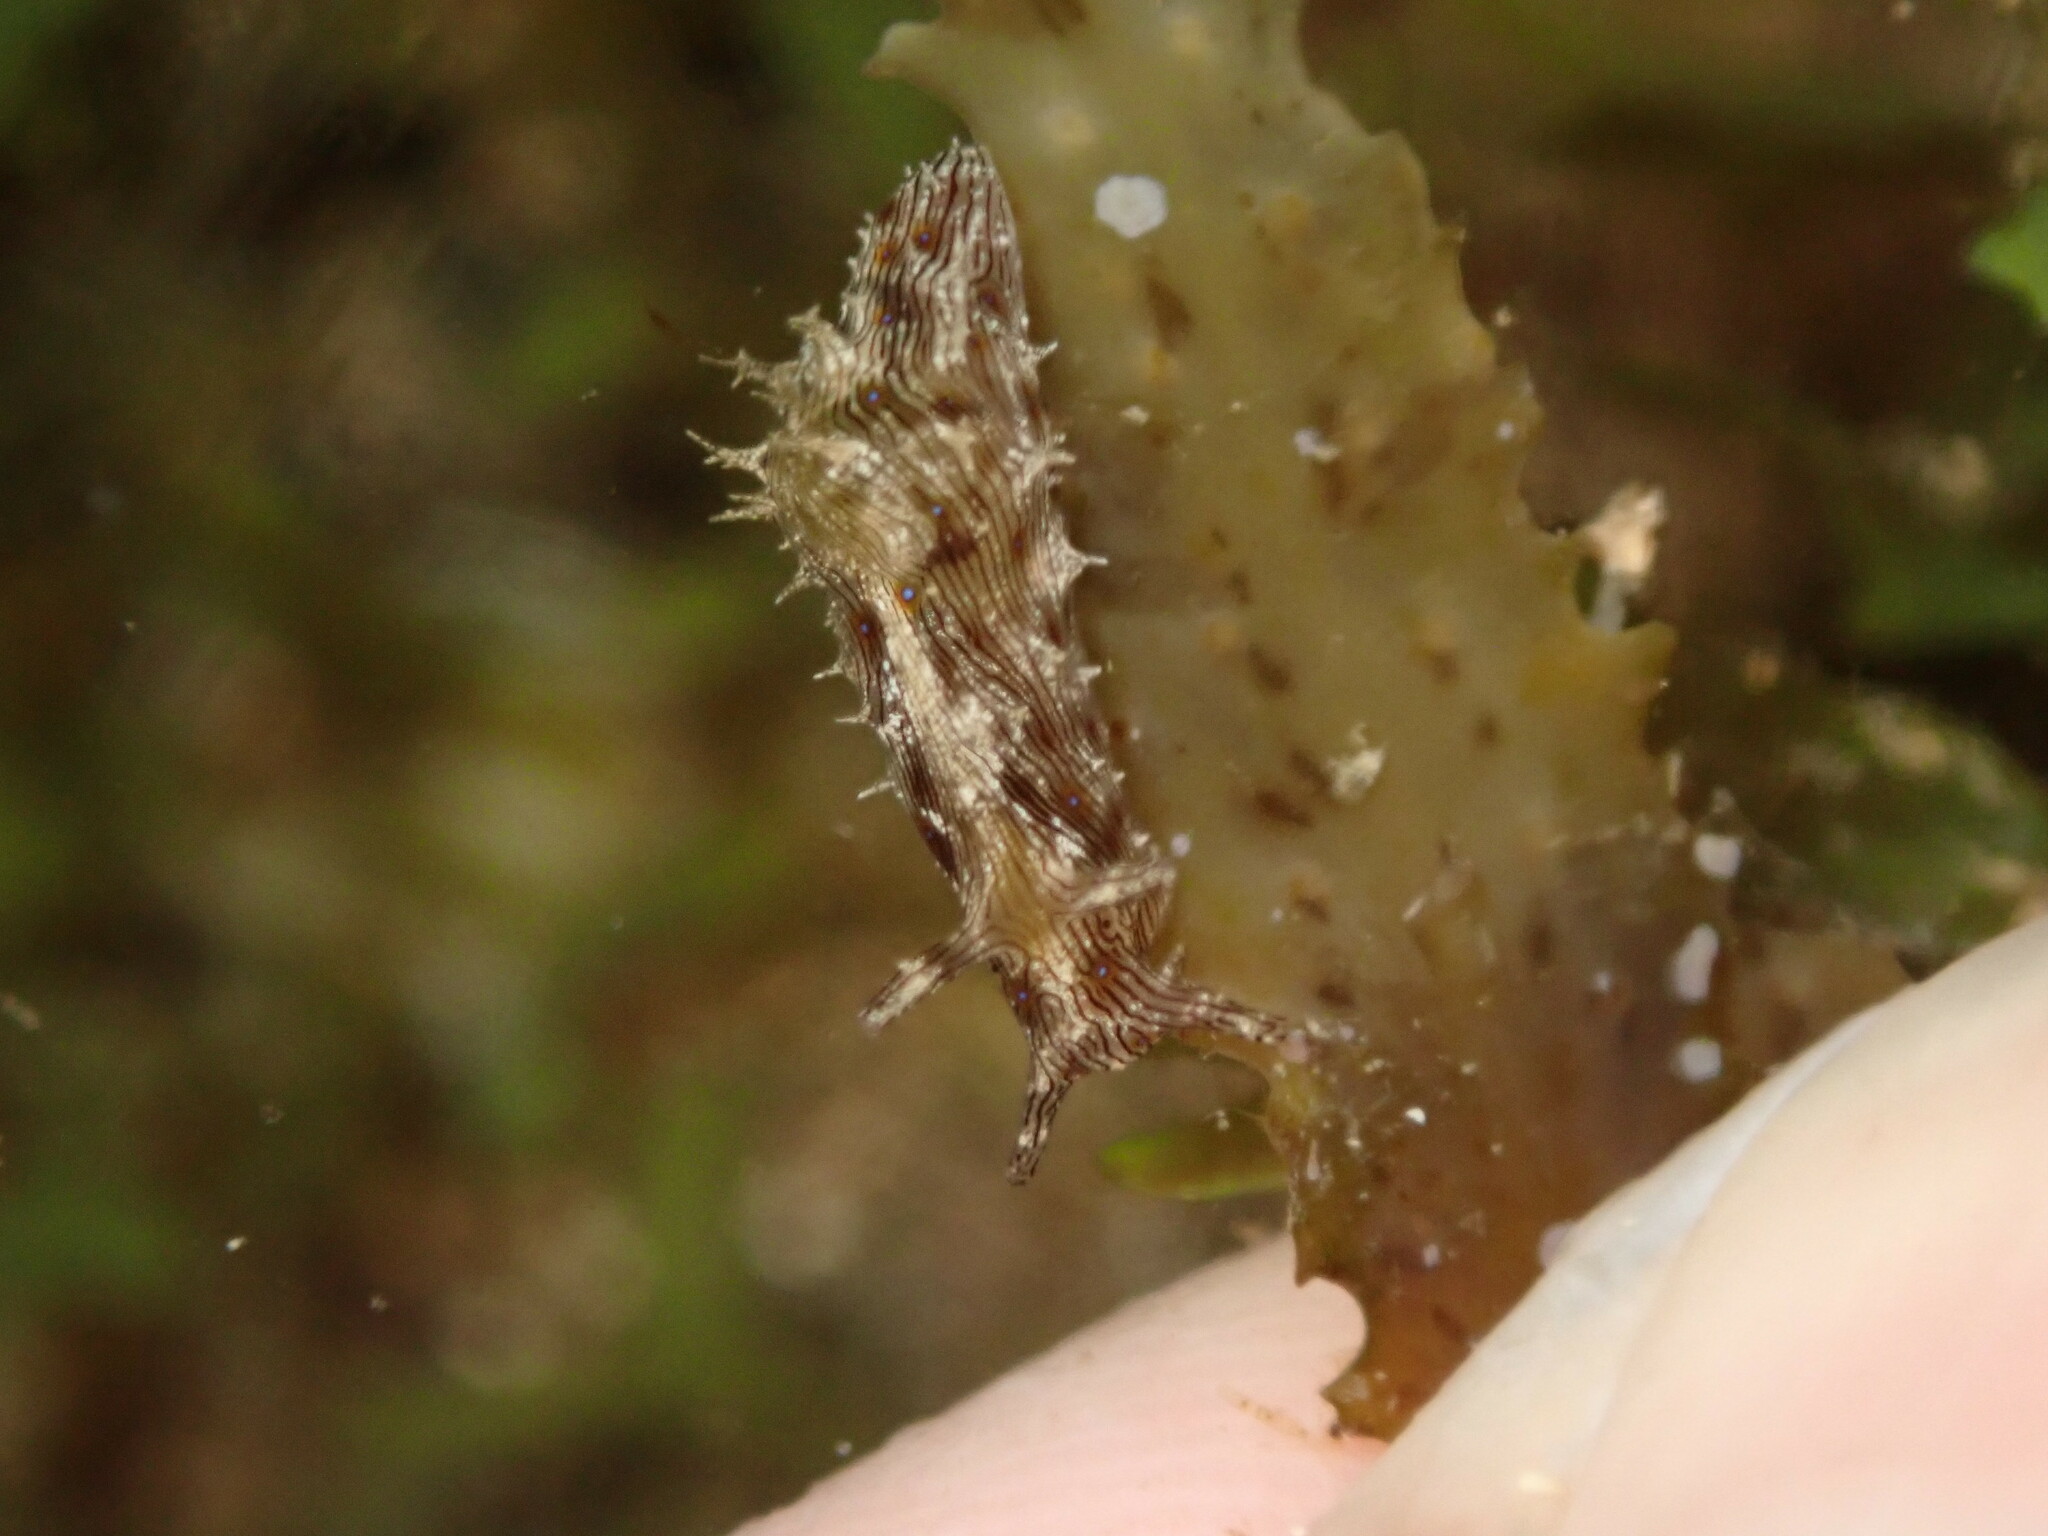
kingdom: Animalia
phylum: Mollusca
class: Gastropoda
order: Aplysiida
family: Aplysiidae
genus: Stylocheilus
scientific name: Stylocheilus striatus
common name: Striated seahare
